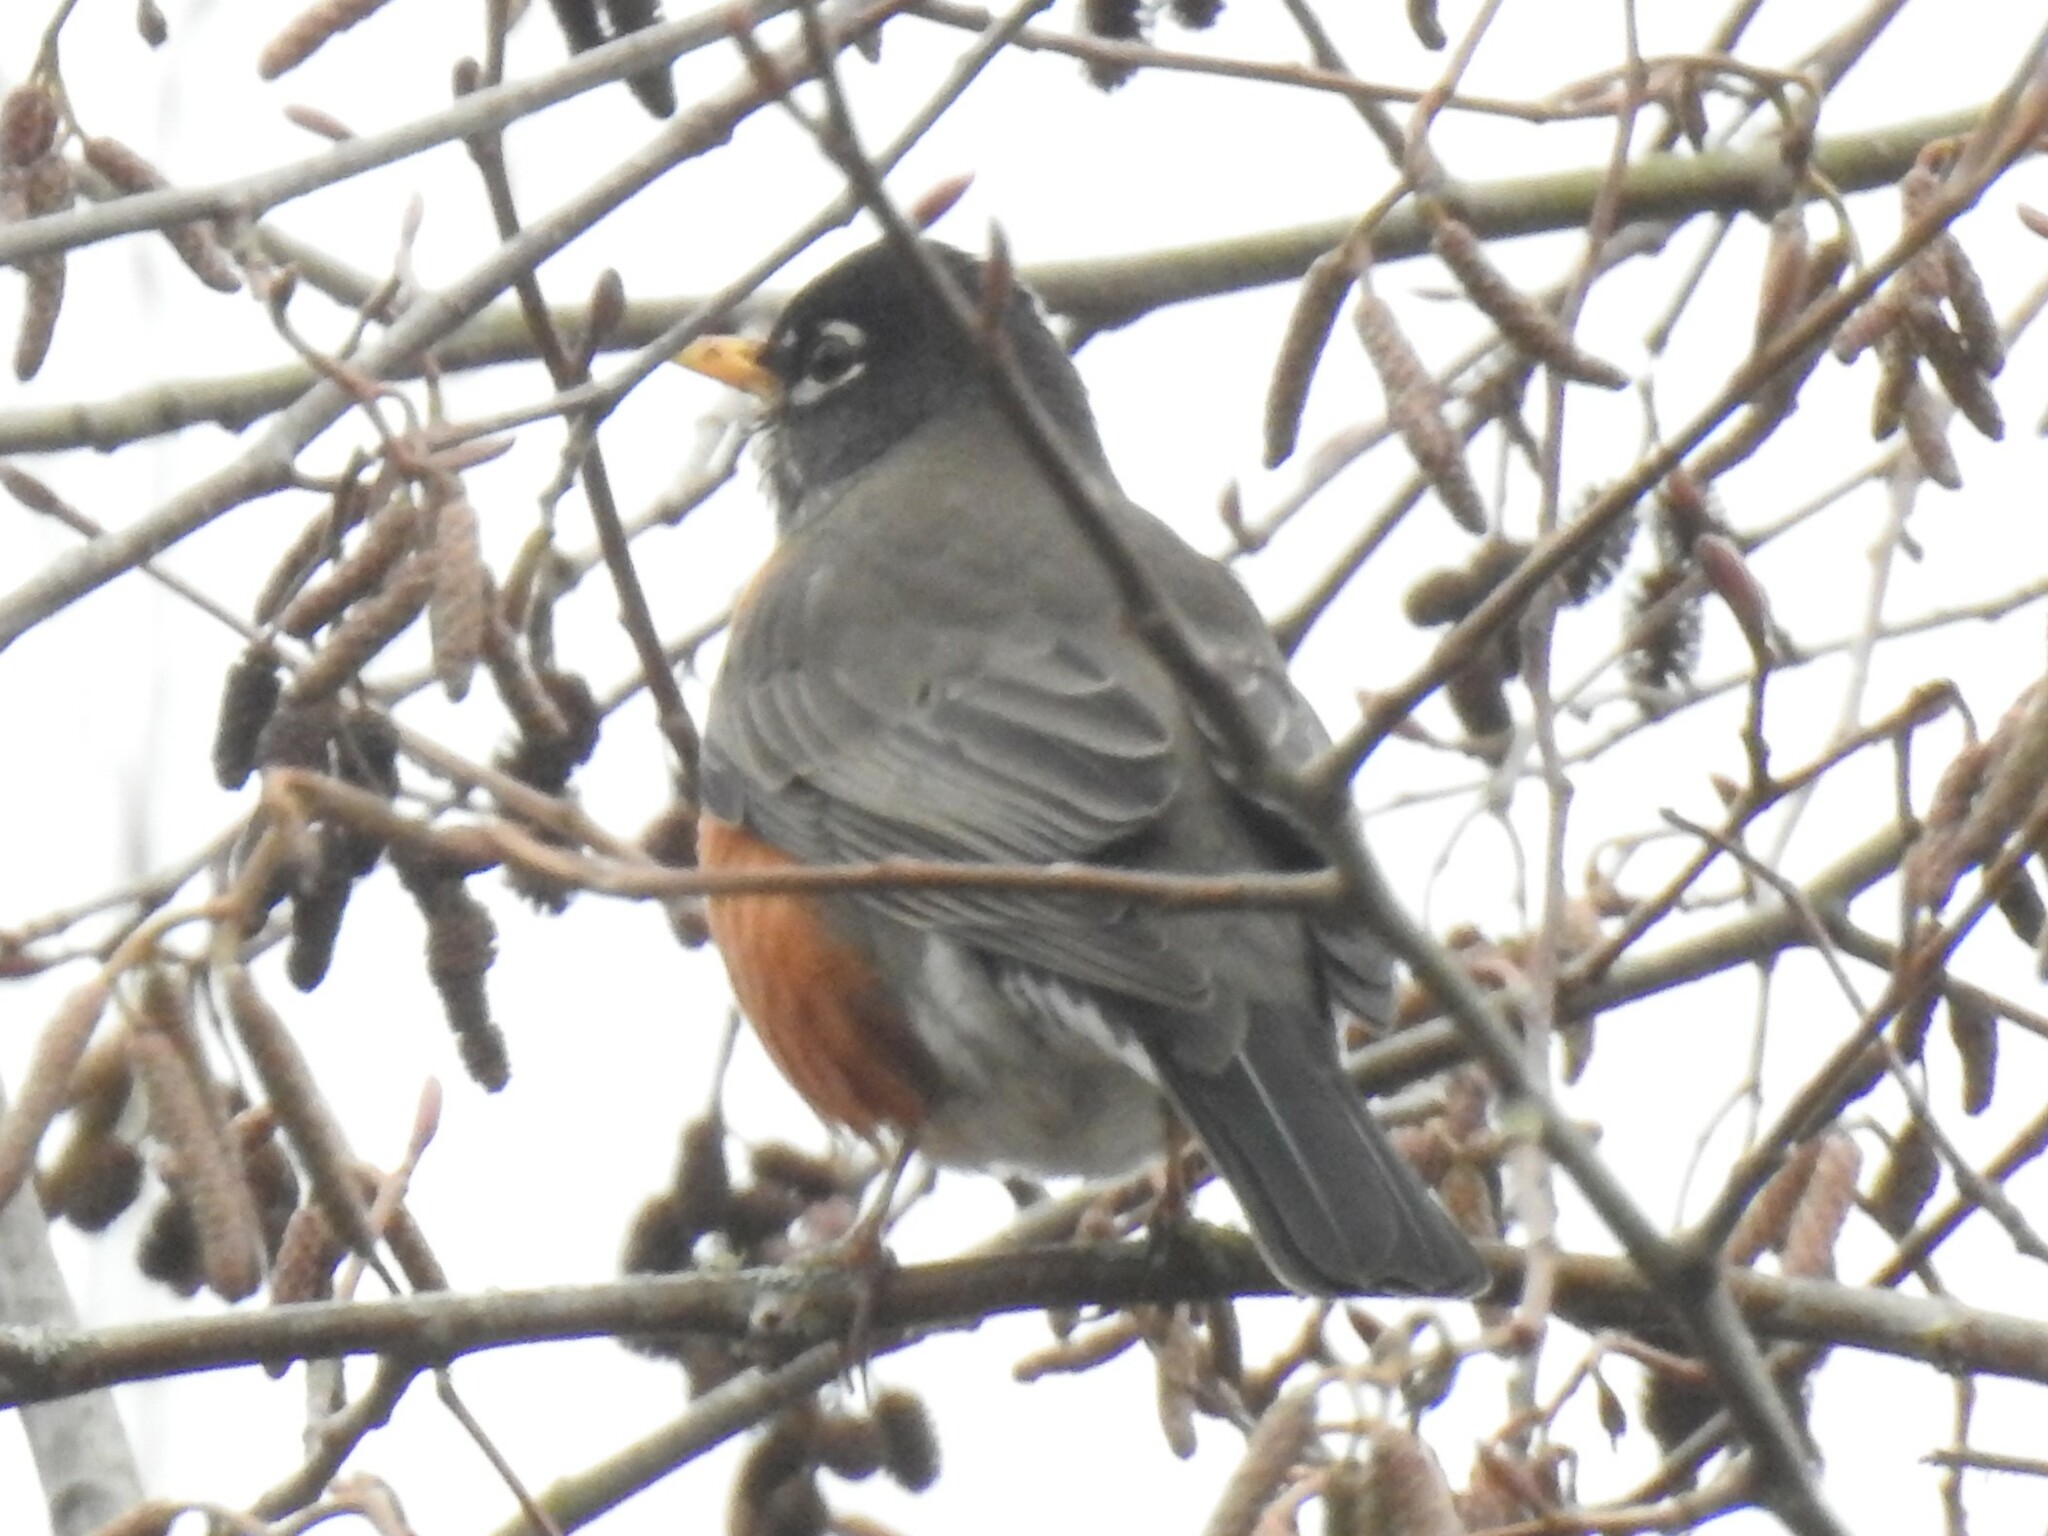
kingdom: Animalia
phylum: Chordata
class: Aves
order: Passeriformes
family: Turdidae
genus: Turdus
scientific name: Turdus migratorius
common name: American robin
